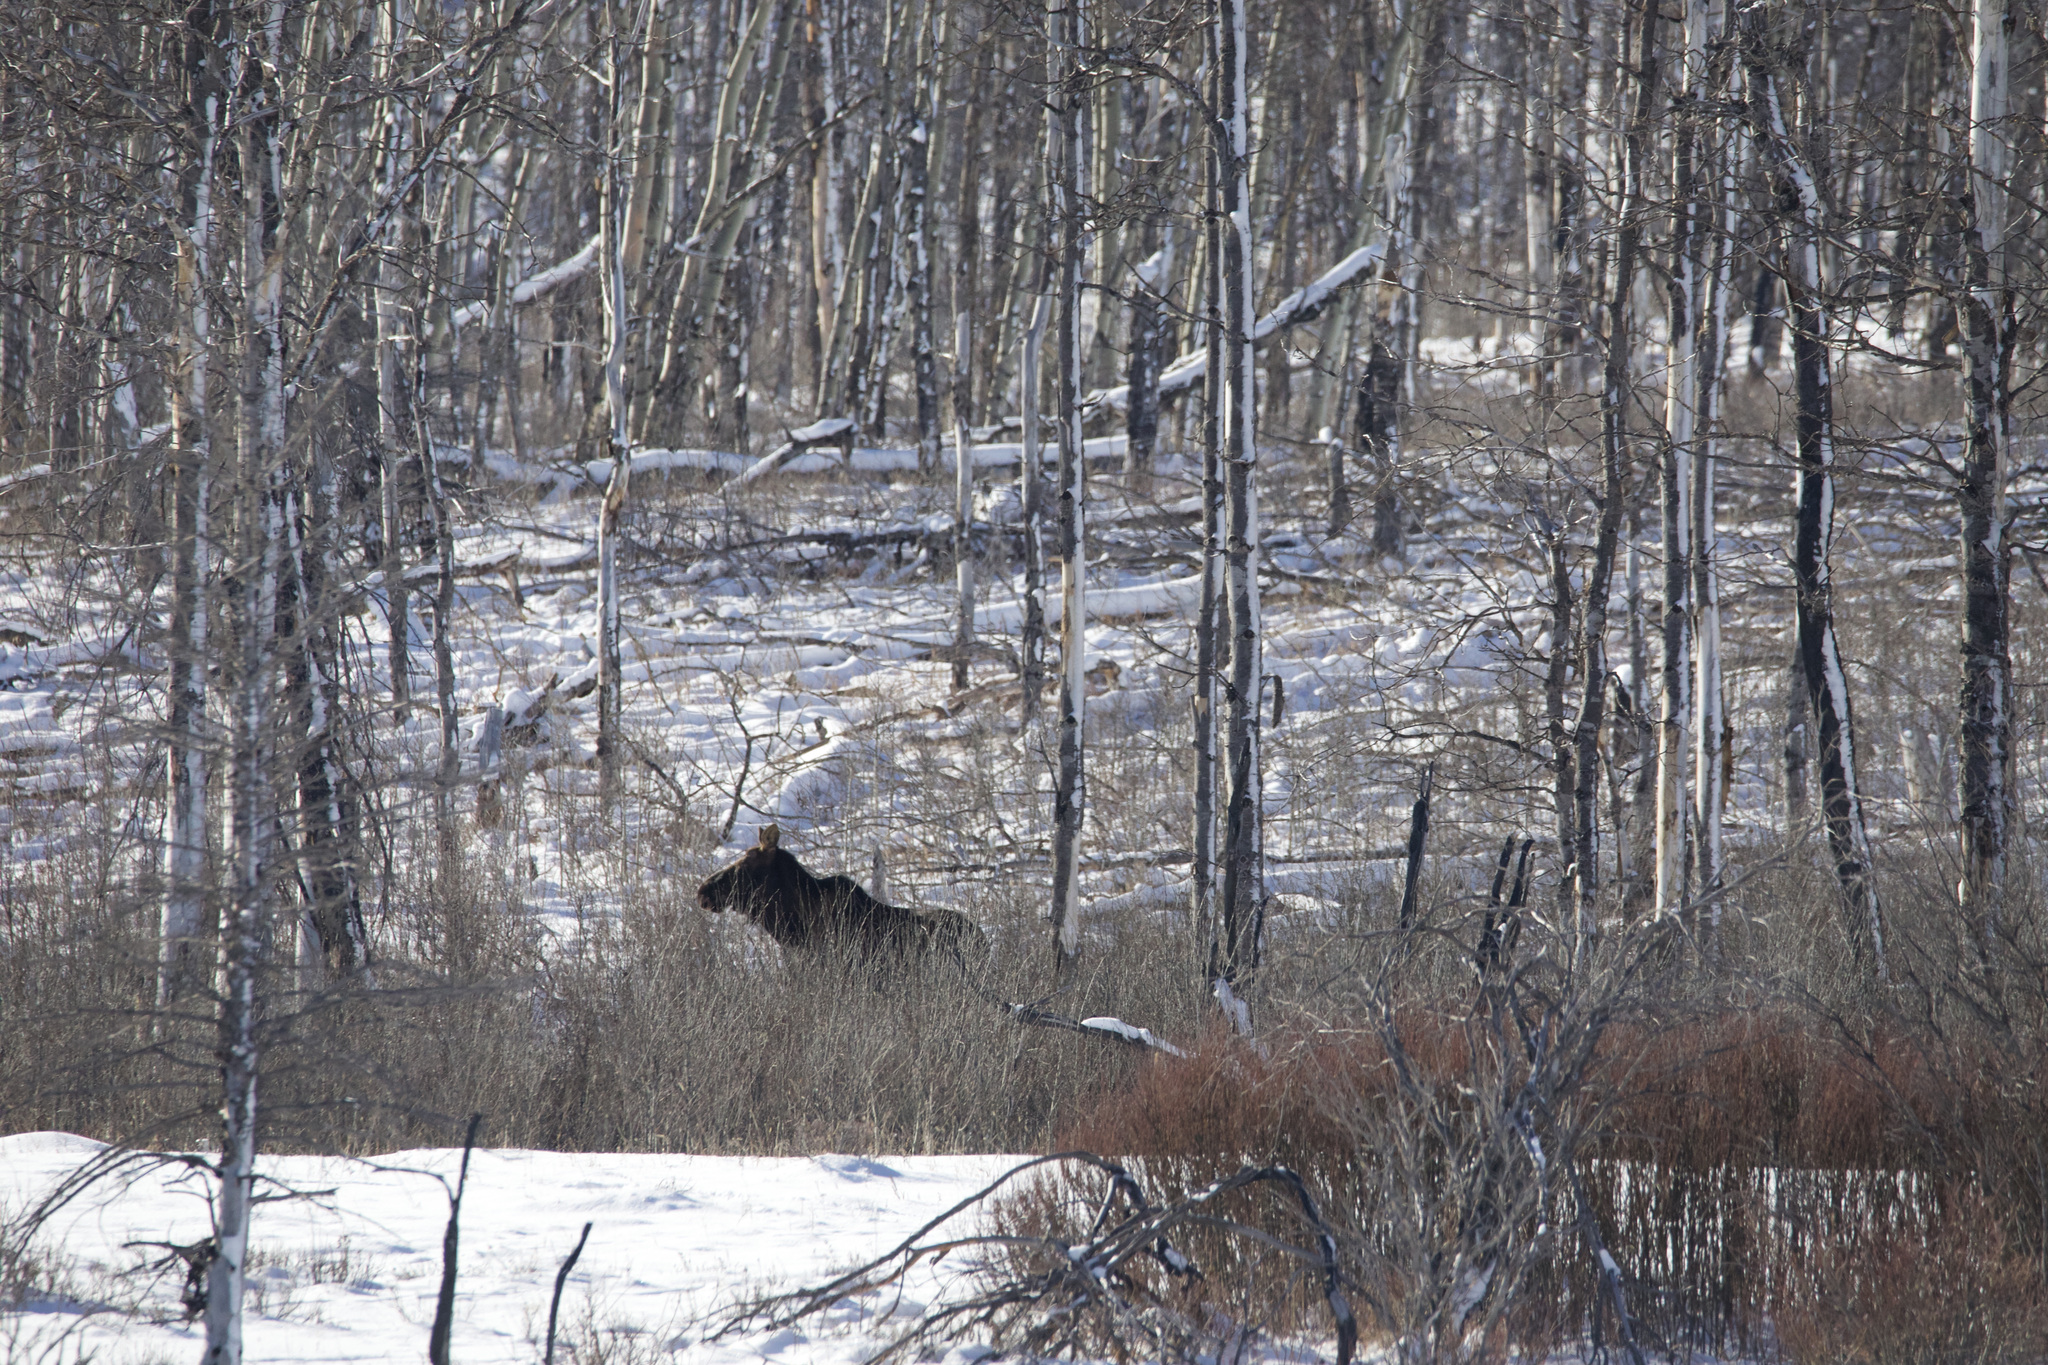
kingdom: Animalia
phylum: Chordata
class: Mammalia
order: Artiodactyla
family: Cervidae
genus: Alces
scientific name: Alces alces
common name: Moose
